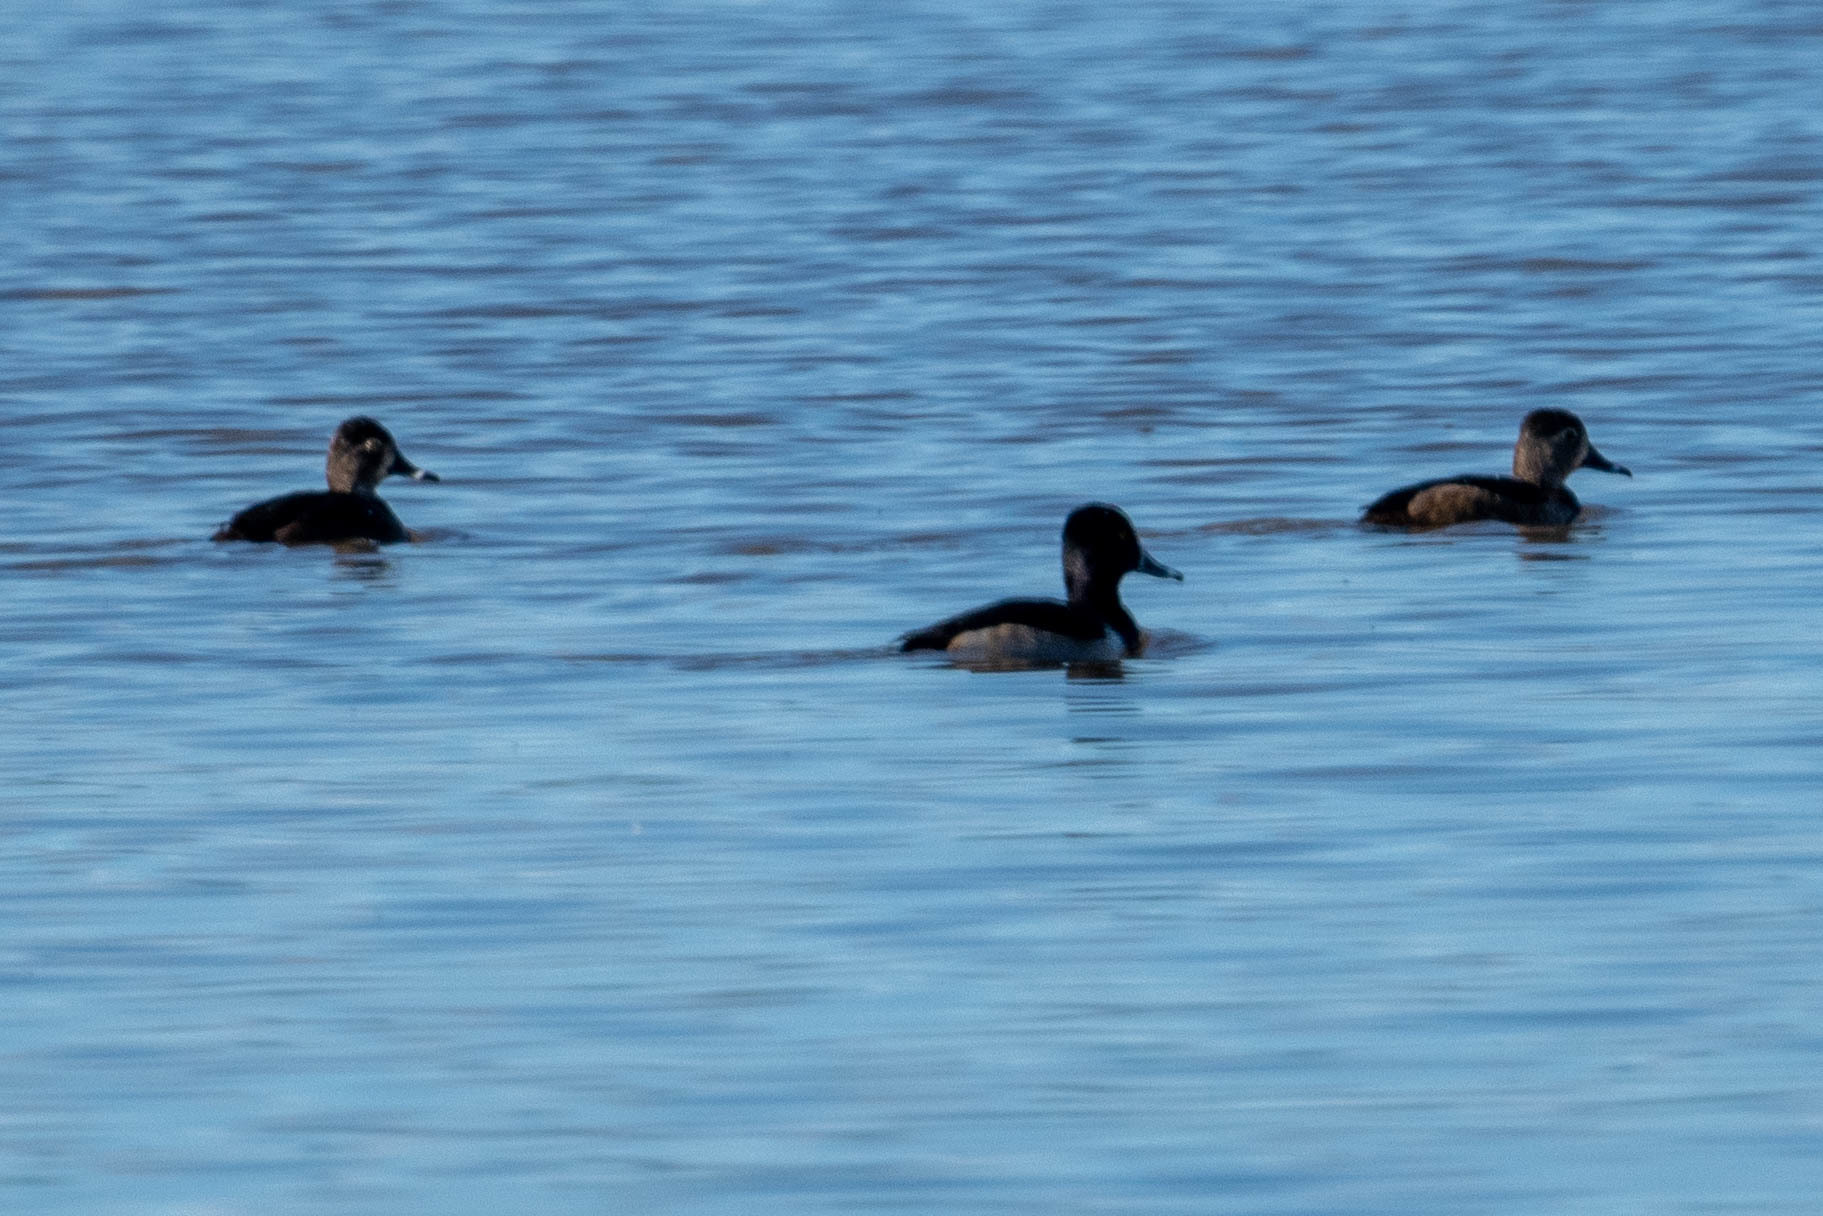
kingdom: Animalia
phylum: Chordata
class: Aves
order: Anseriformes
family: Anatidae
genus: Aythya
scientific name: Aythya collaris
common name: Ring-necked duck
